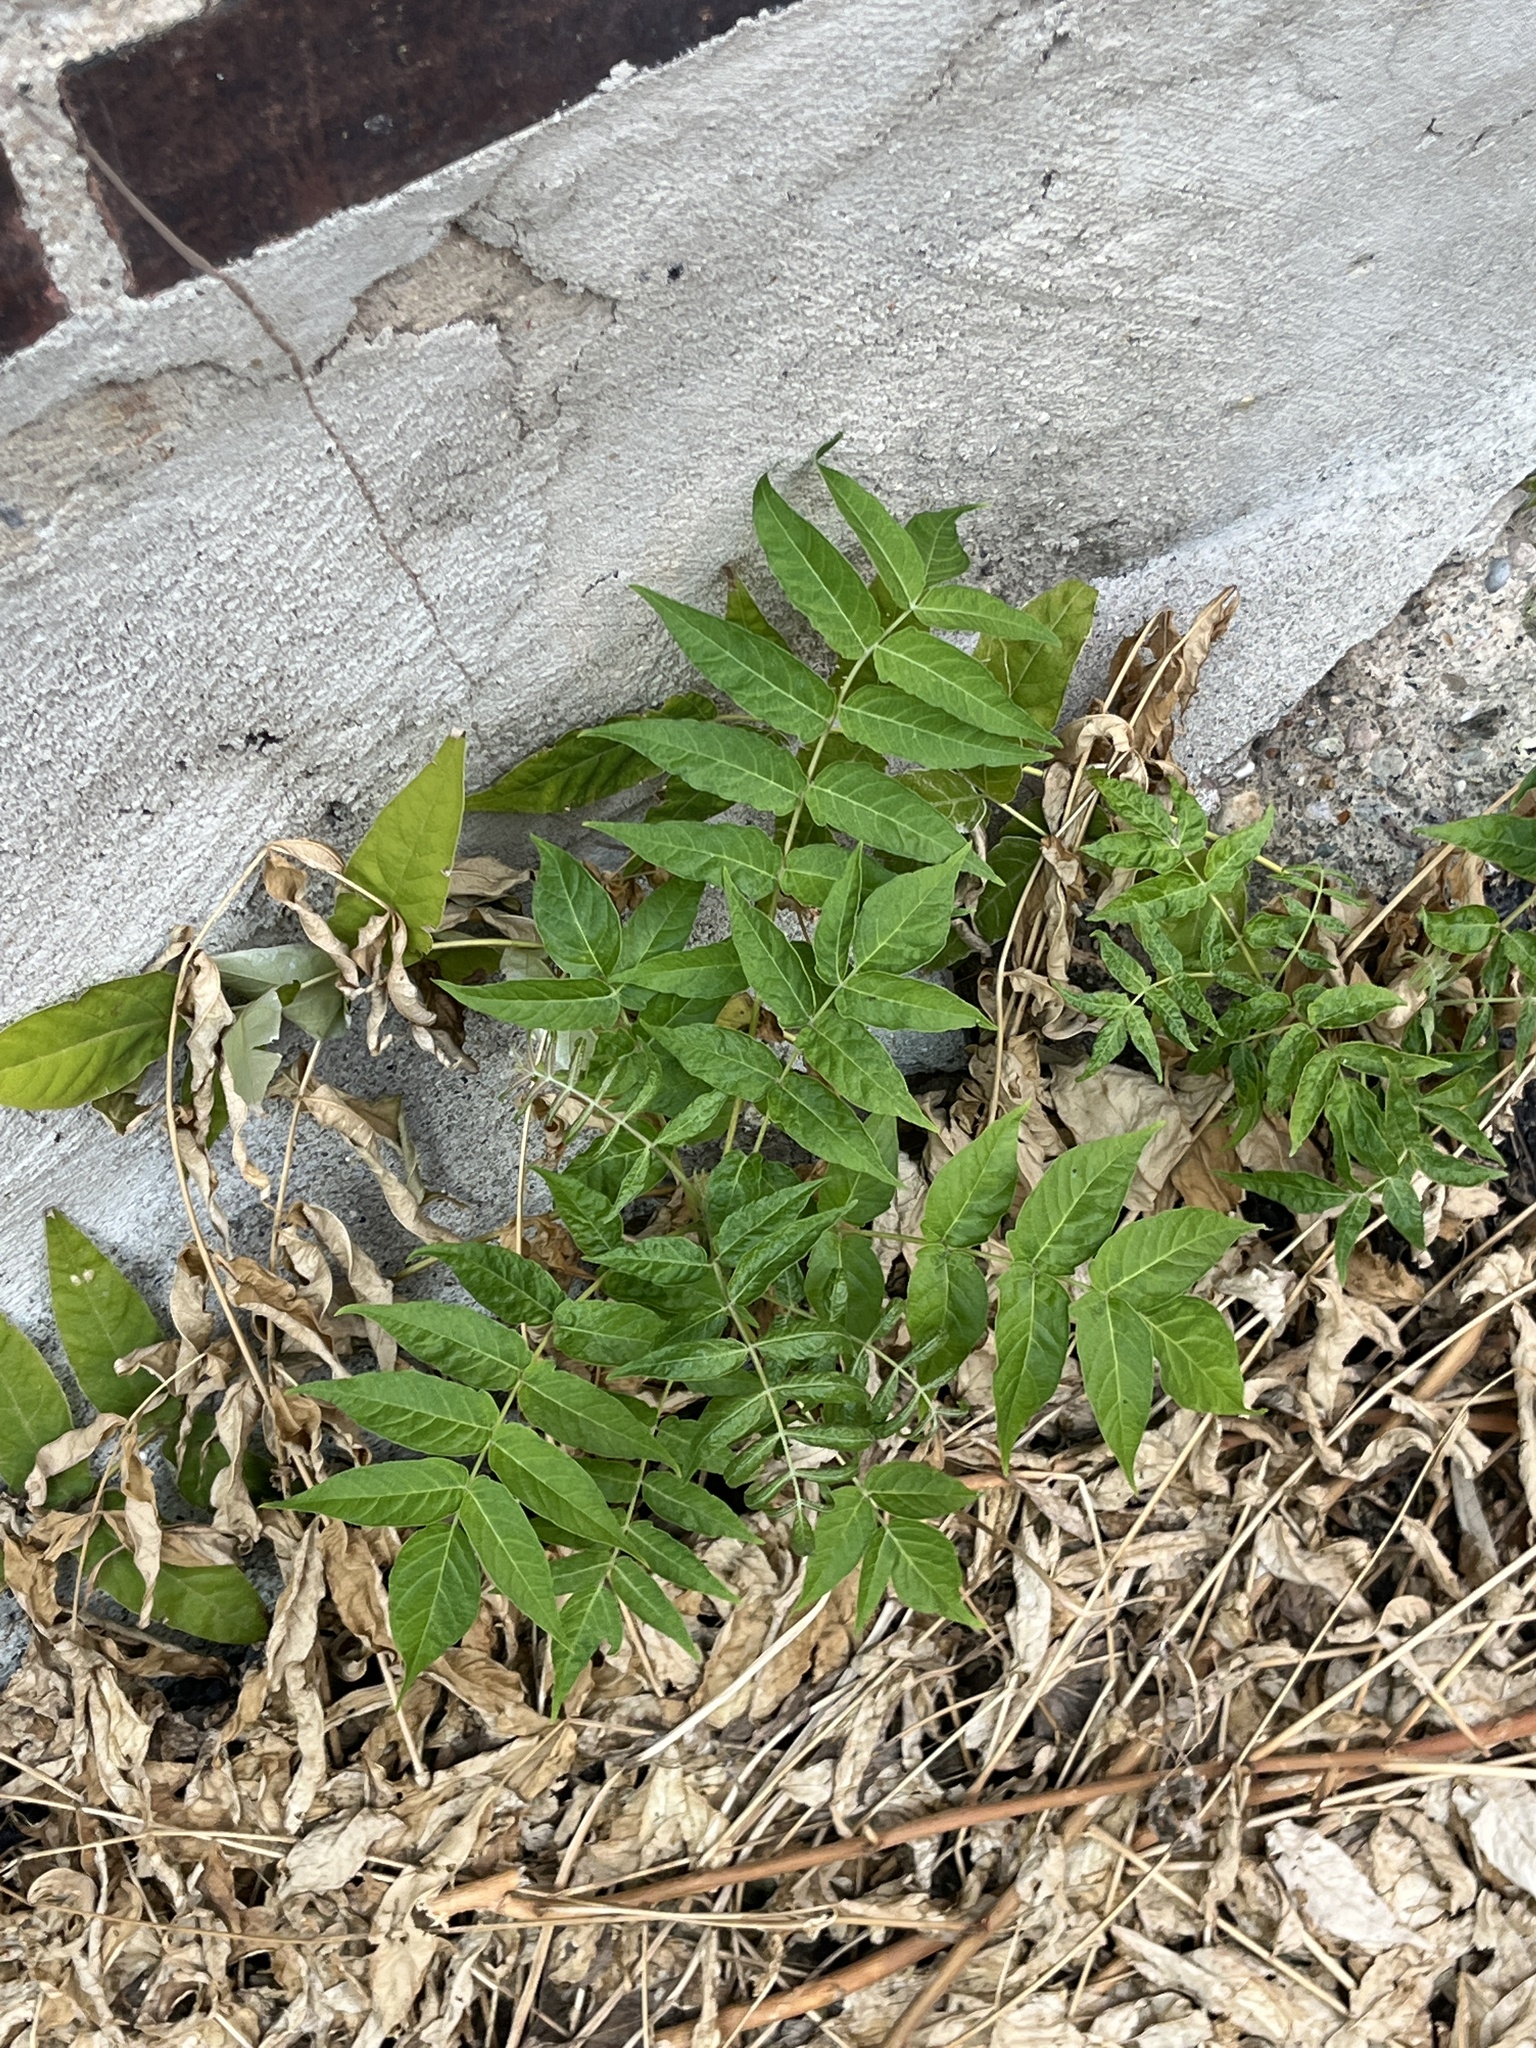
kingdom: Plantae
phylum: Tracheophyta
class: Magnoliopsida
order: Sapindales
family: Simaroubaceae
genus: Ailanthus
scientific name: Ailanthus altissima
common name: Tree-of-heaven
